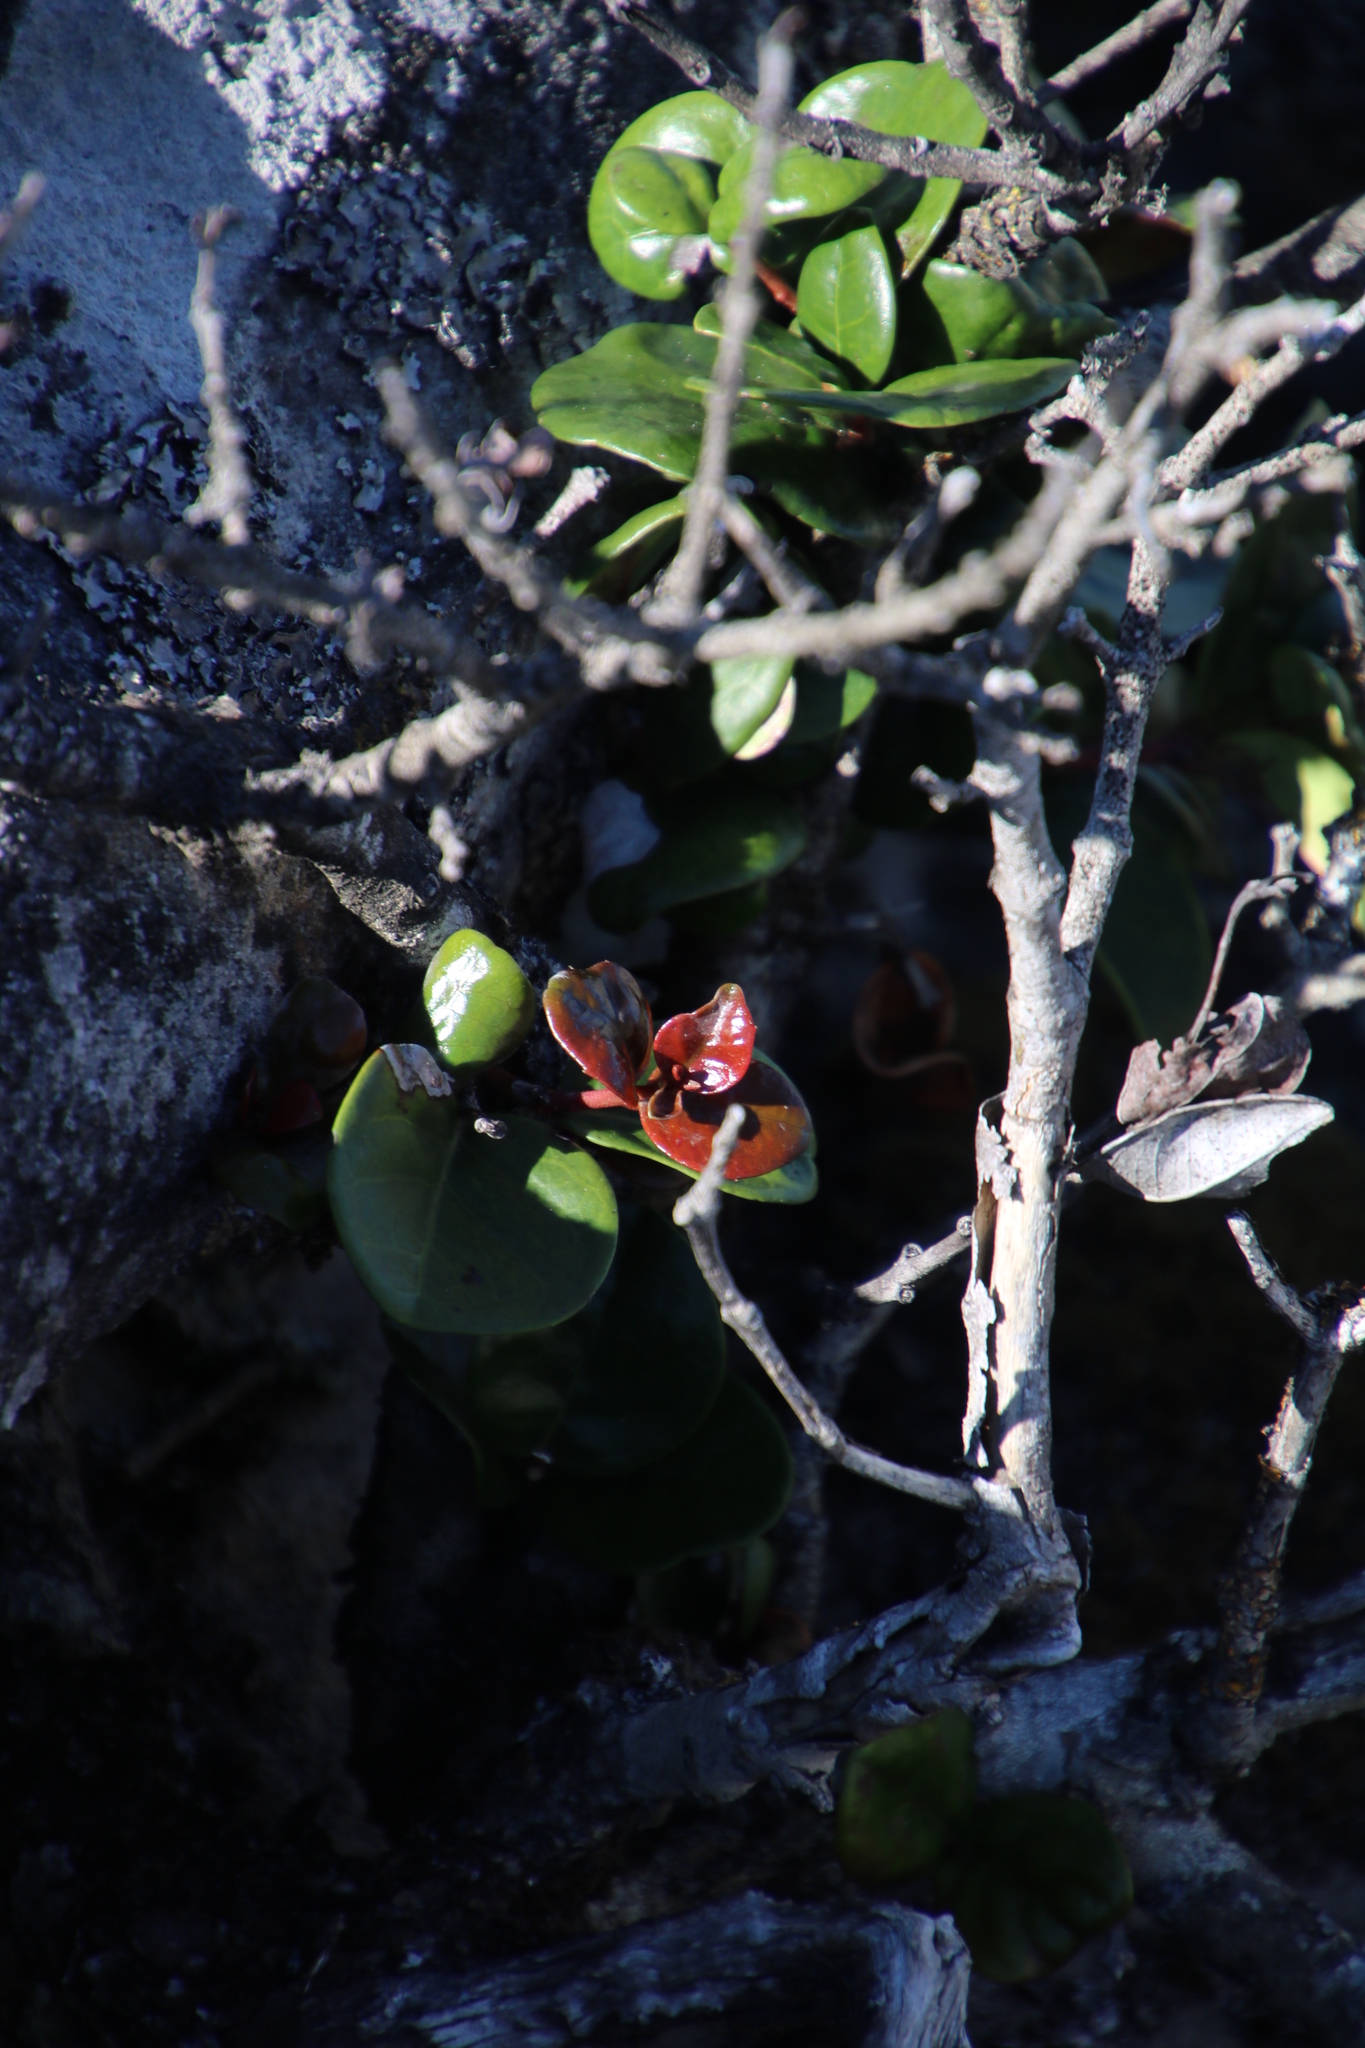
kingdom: Plantae
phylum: Tracheophyta
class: Magnoliopsida
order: Celastrales
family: Celastraceae
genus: Maurocenia
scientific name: Maurocenia frangula
